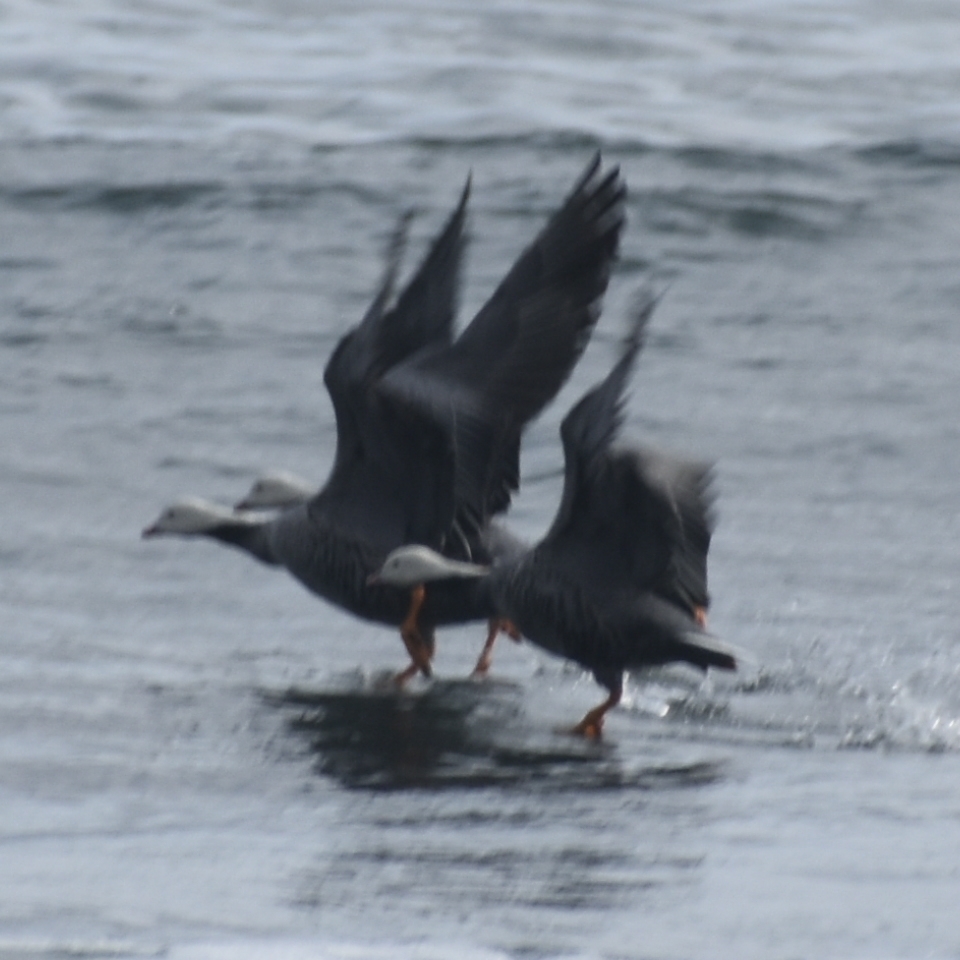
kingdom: Animalia
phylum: Chordata
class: Aves
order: Anseriformes
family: Anatidae
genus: Anser
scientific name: Anser canagicus
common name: Emperor goose
